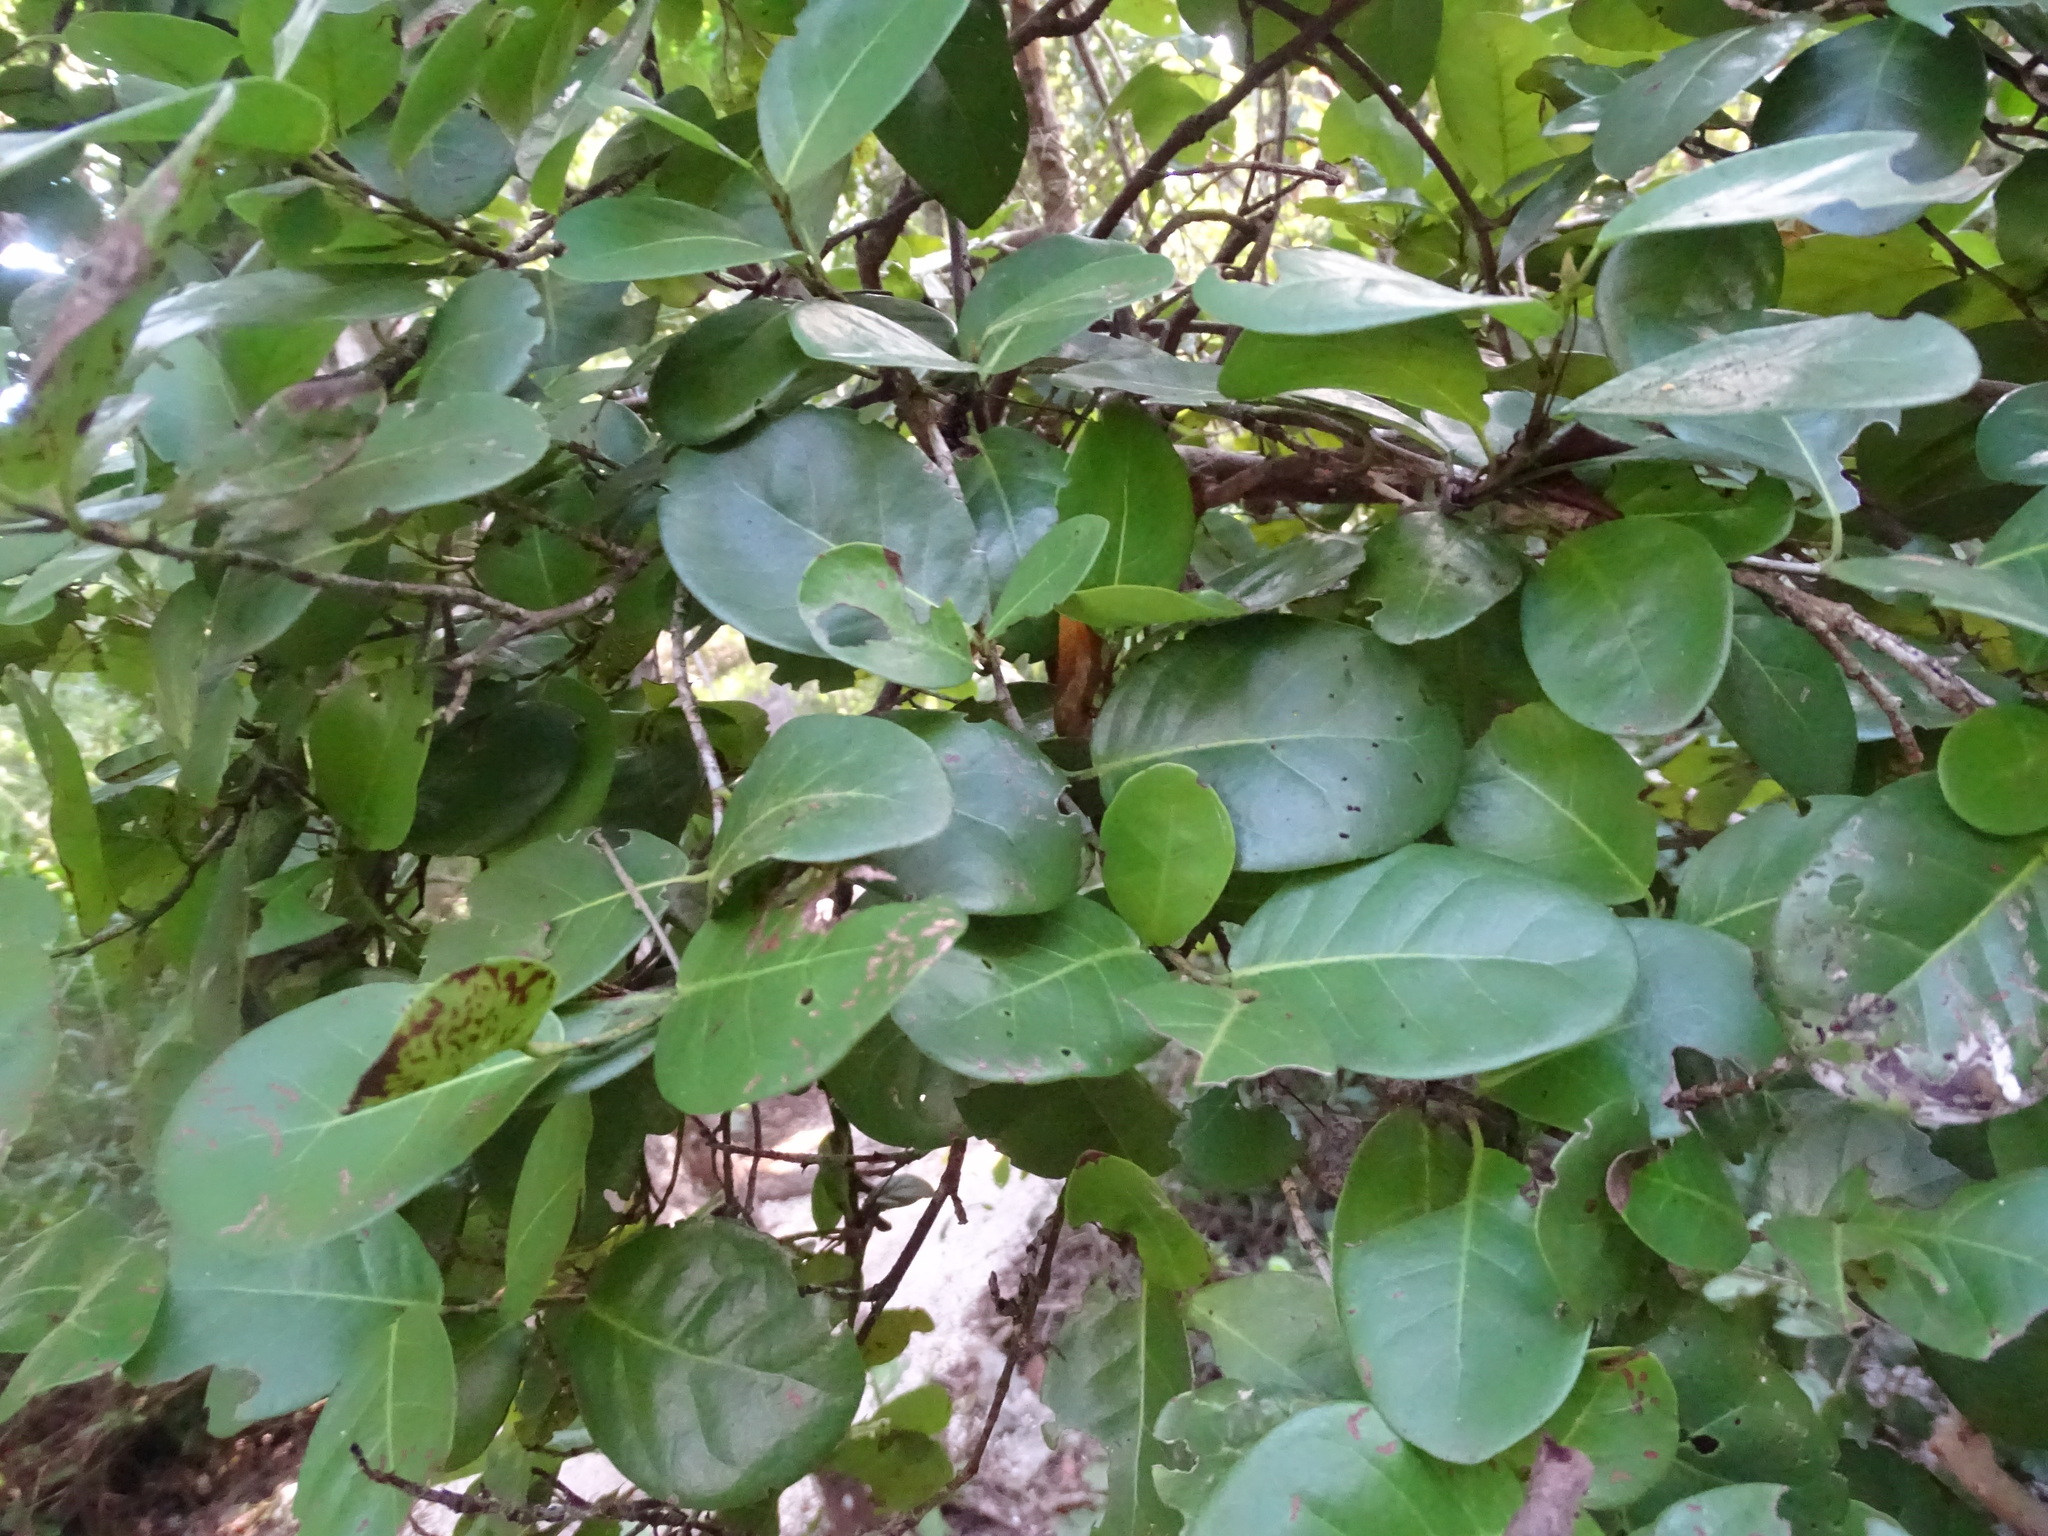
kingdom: Plantae
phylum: Tracheophyta
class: Magnoliopsida
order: Caryophyllales
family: Polygonaceae
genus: Coccoloba
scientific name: Coccoloba diversifolia
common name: Pigeon-plum
